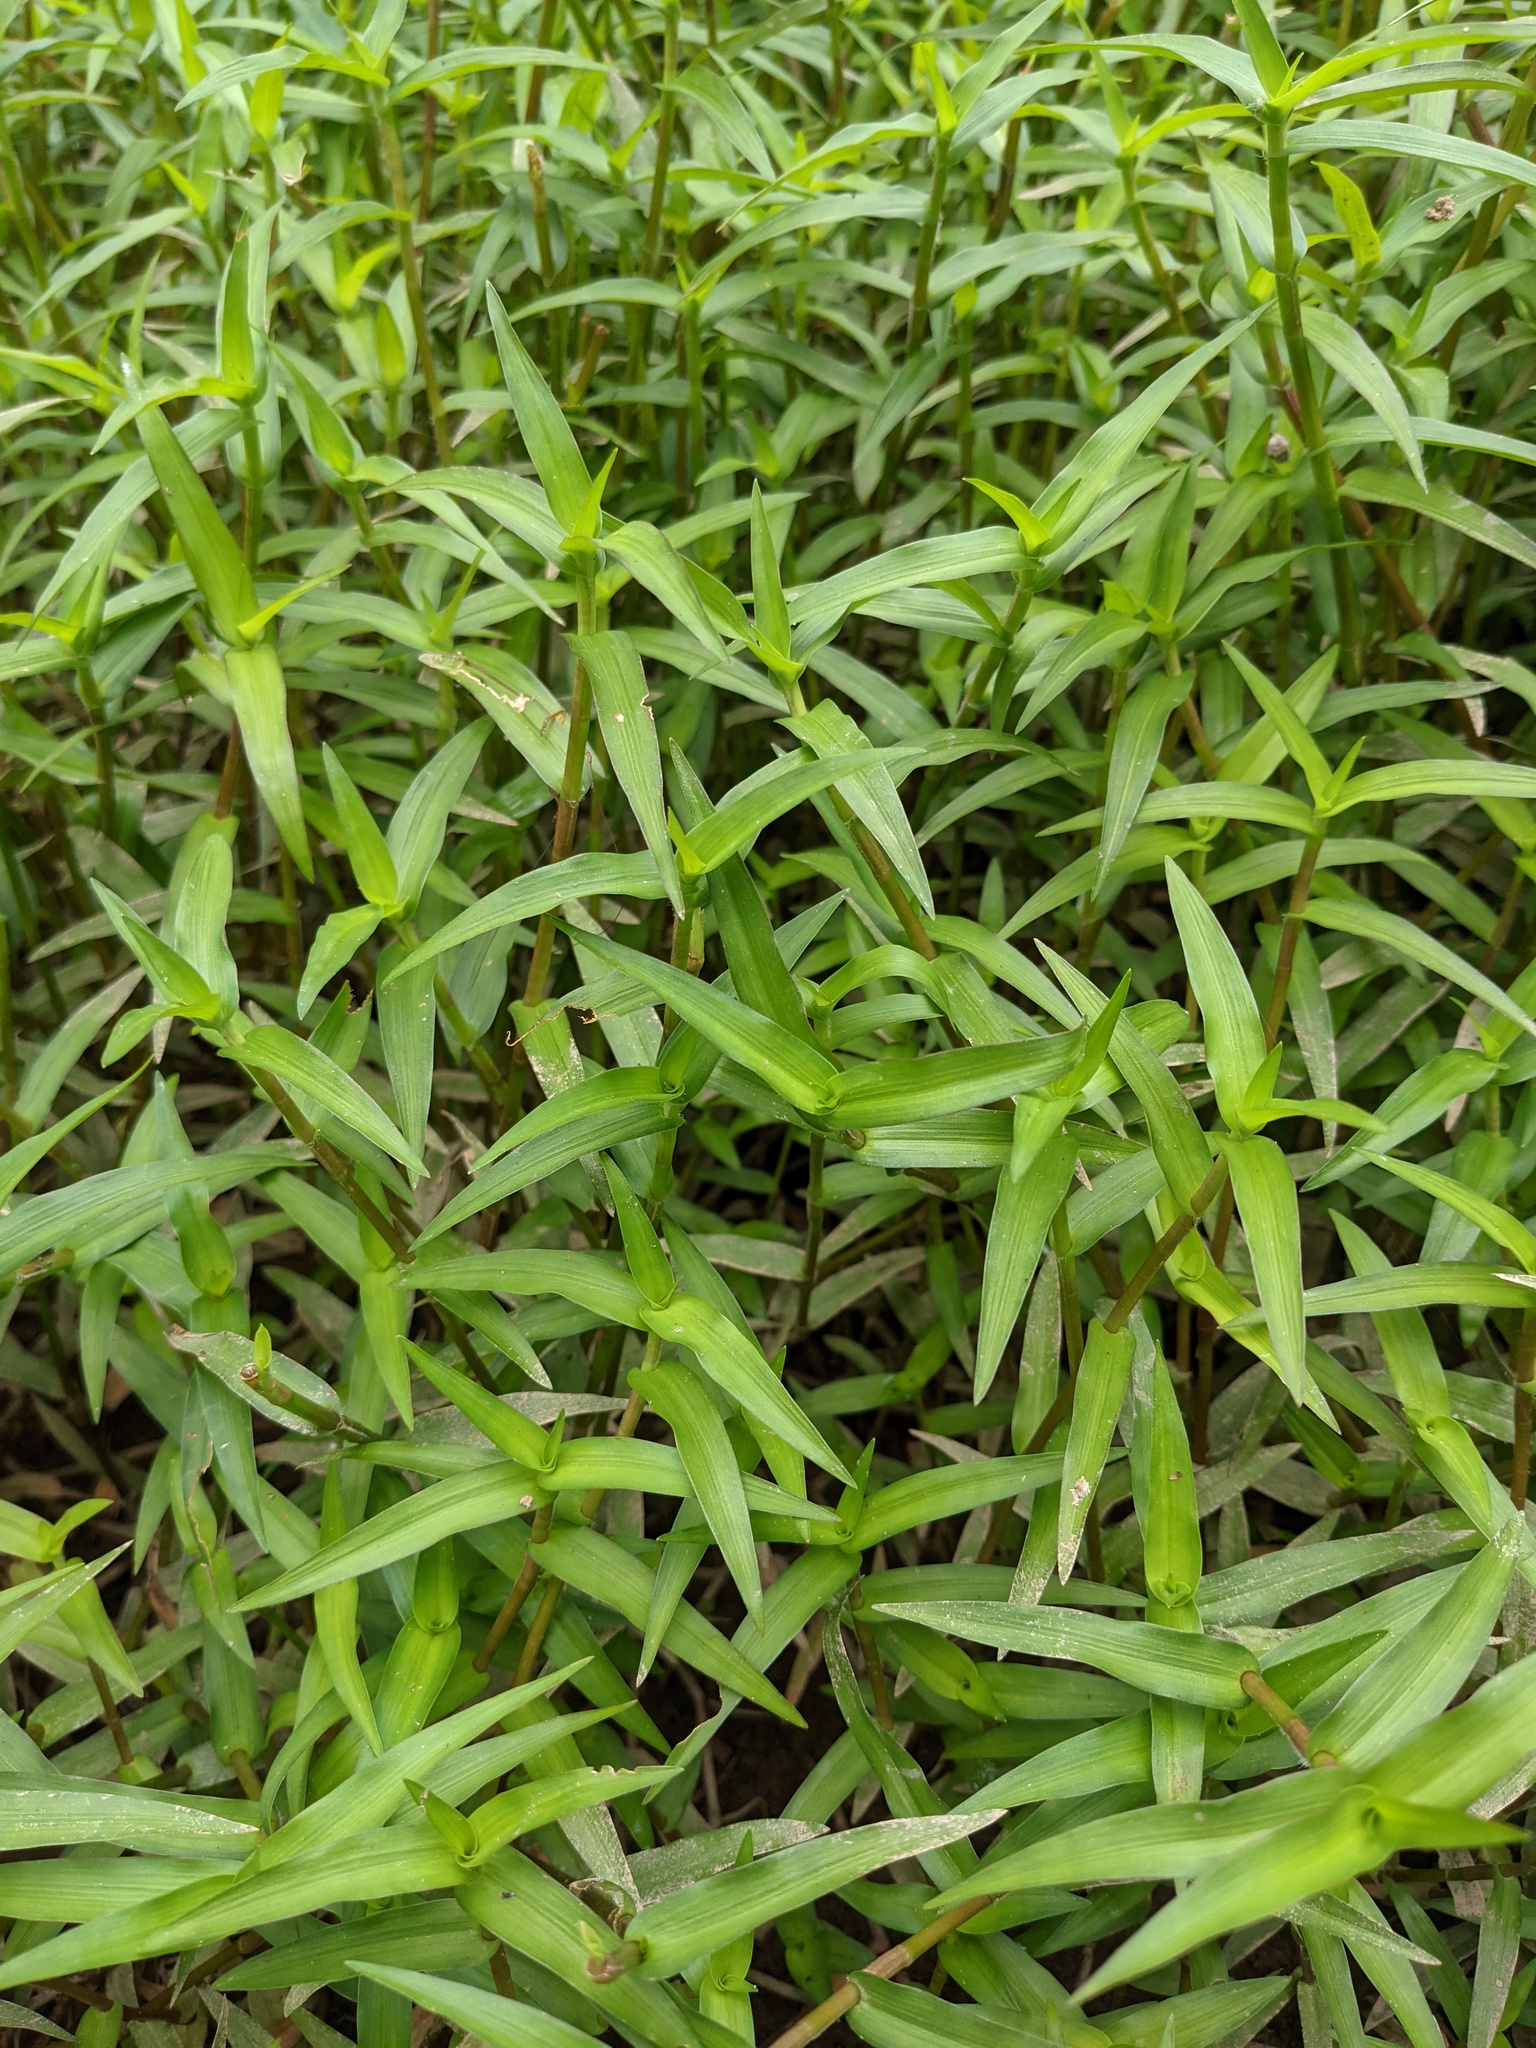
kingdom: Plantae
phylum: Tracheophyta
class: Liliopsida
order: Commelinales
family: Commelinaceae
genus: Murdannia
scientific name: Murdannia keisak
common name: Wartremoving herb
